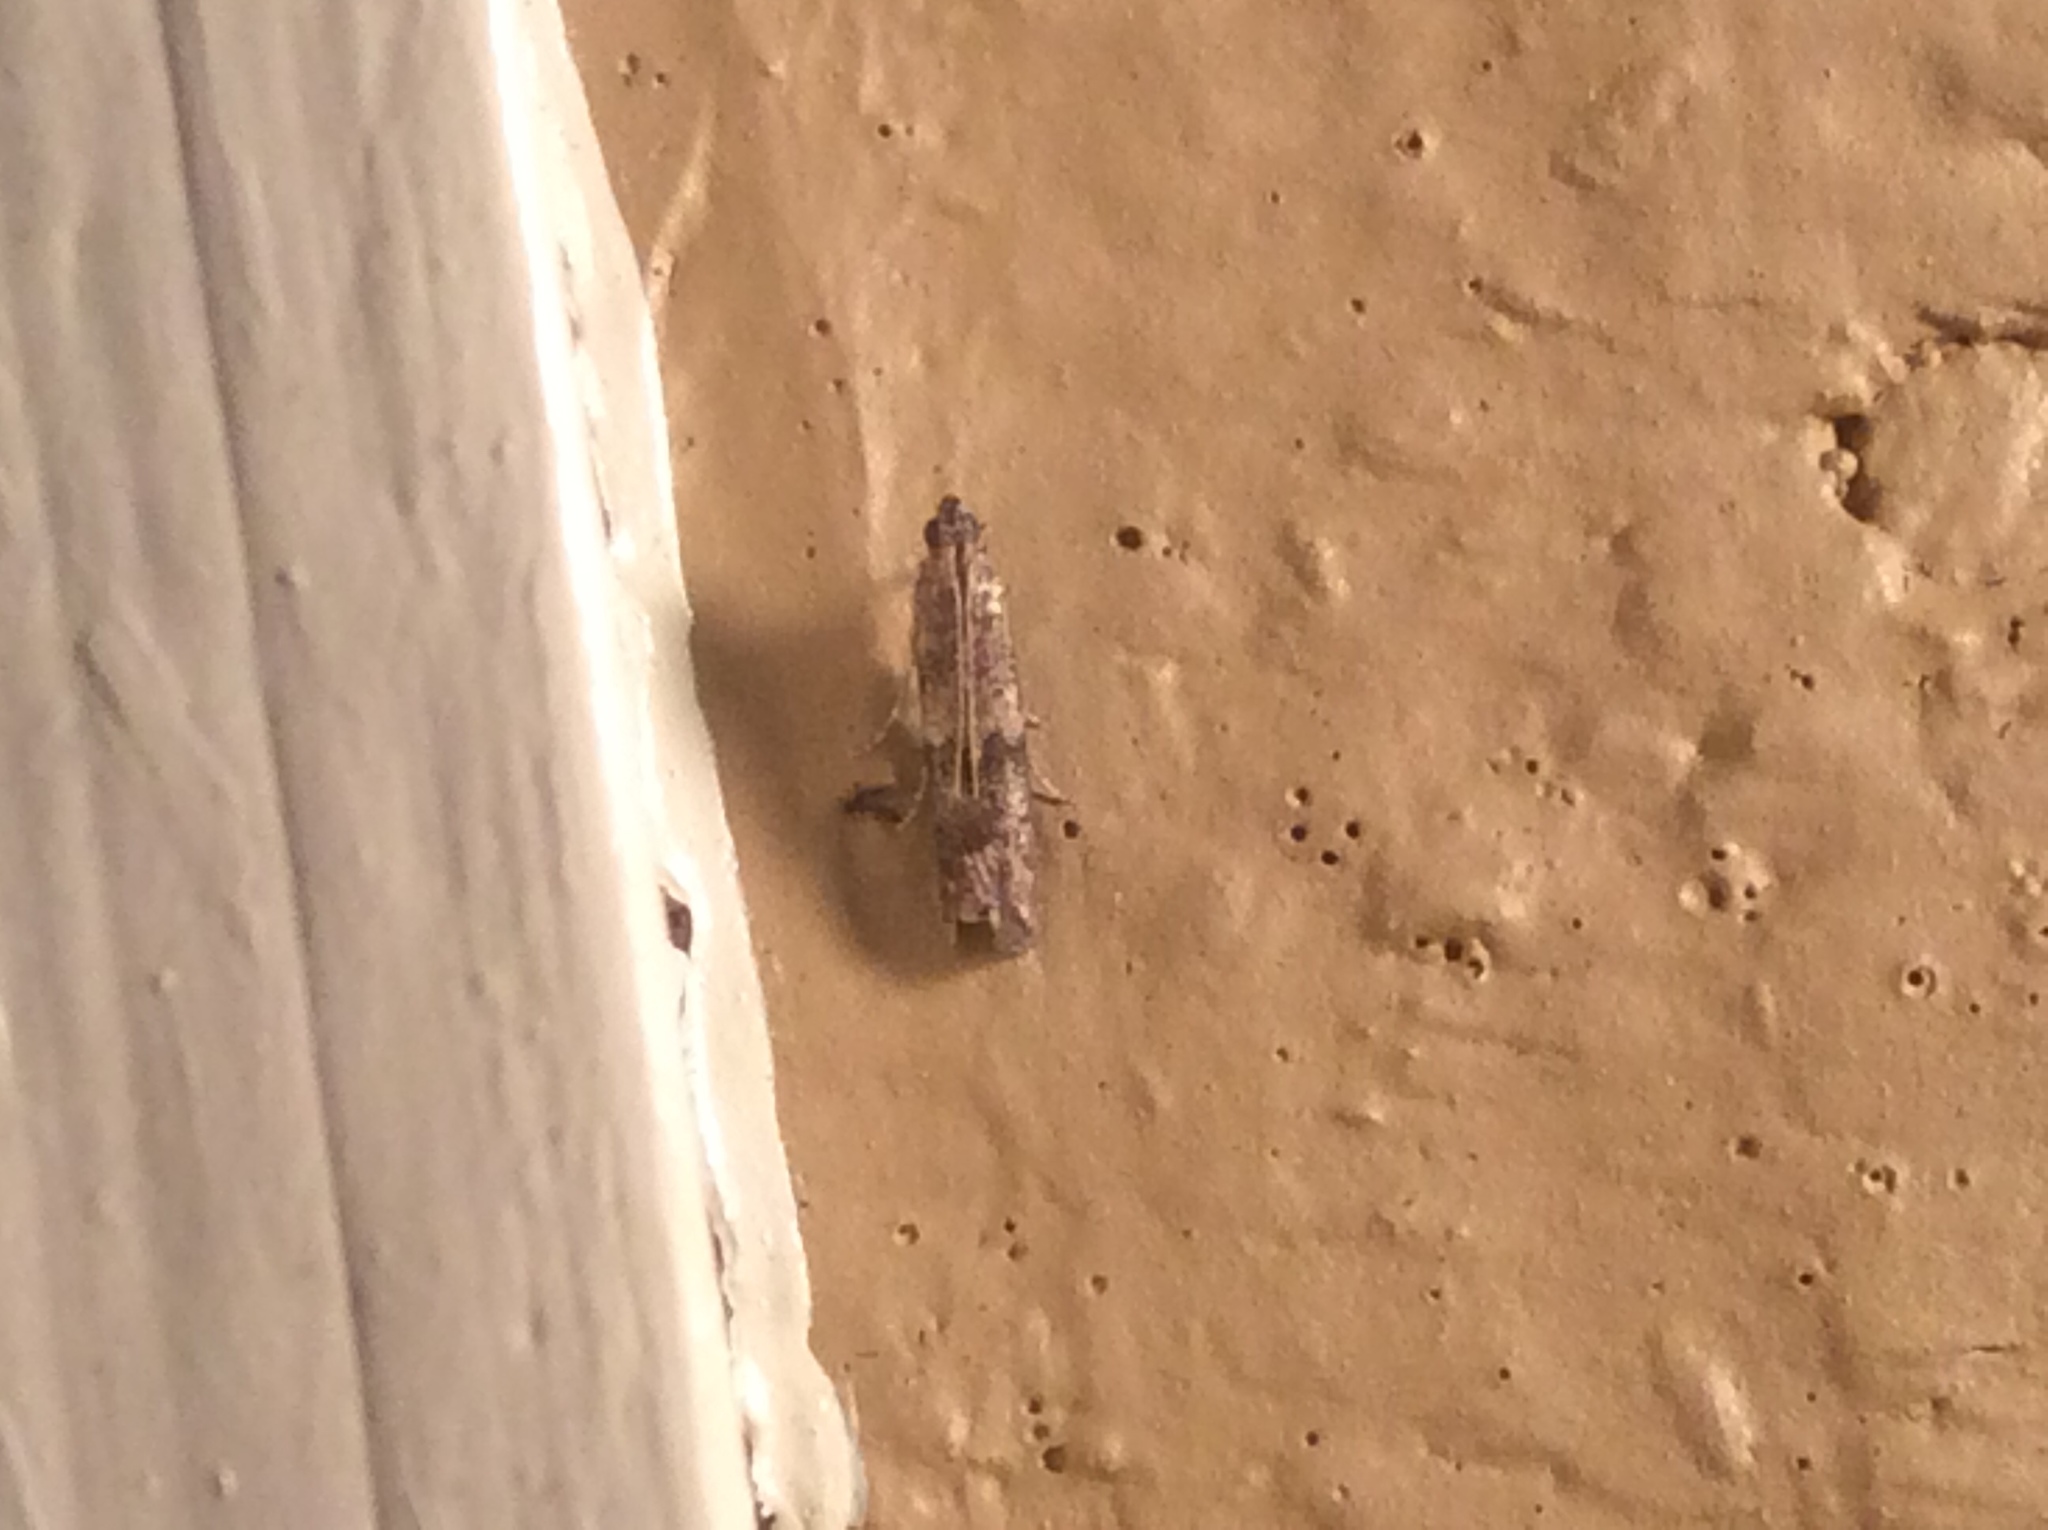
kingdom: Animalia
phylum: Arthropoda
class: Insecta
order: Lepidoptera
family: Pyralidae
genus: Ephestiodes
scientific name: Ephestiodes infimella
